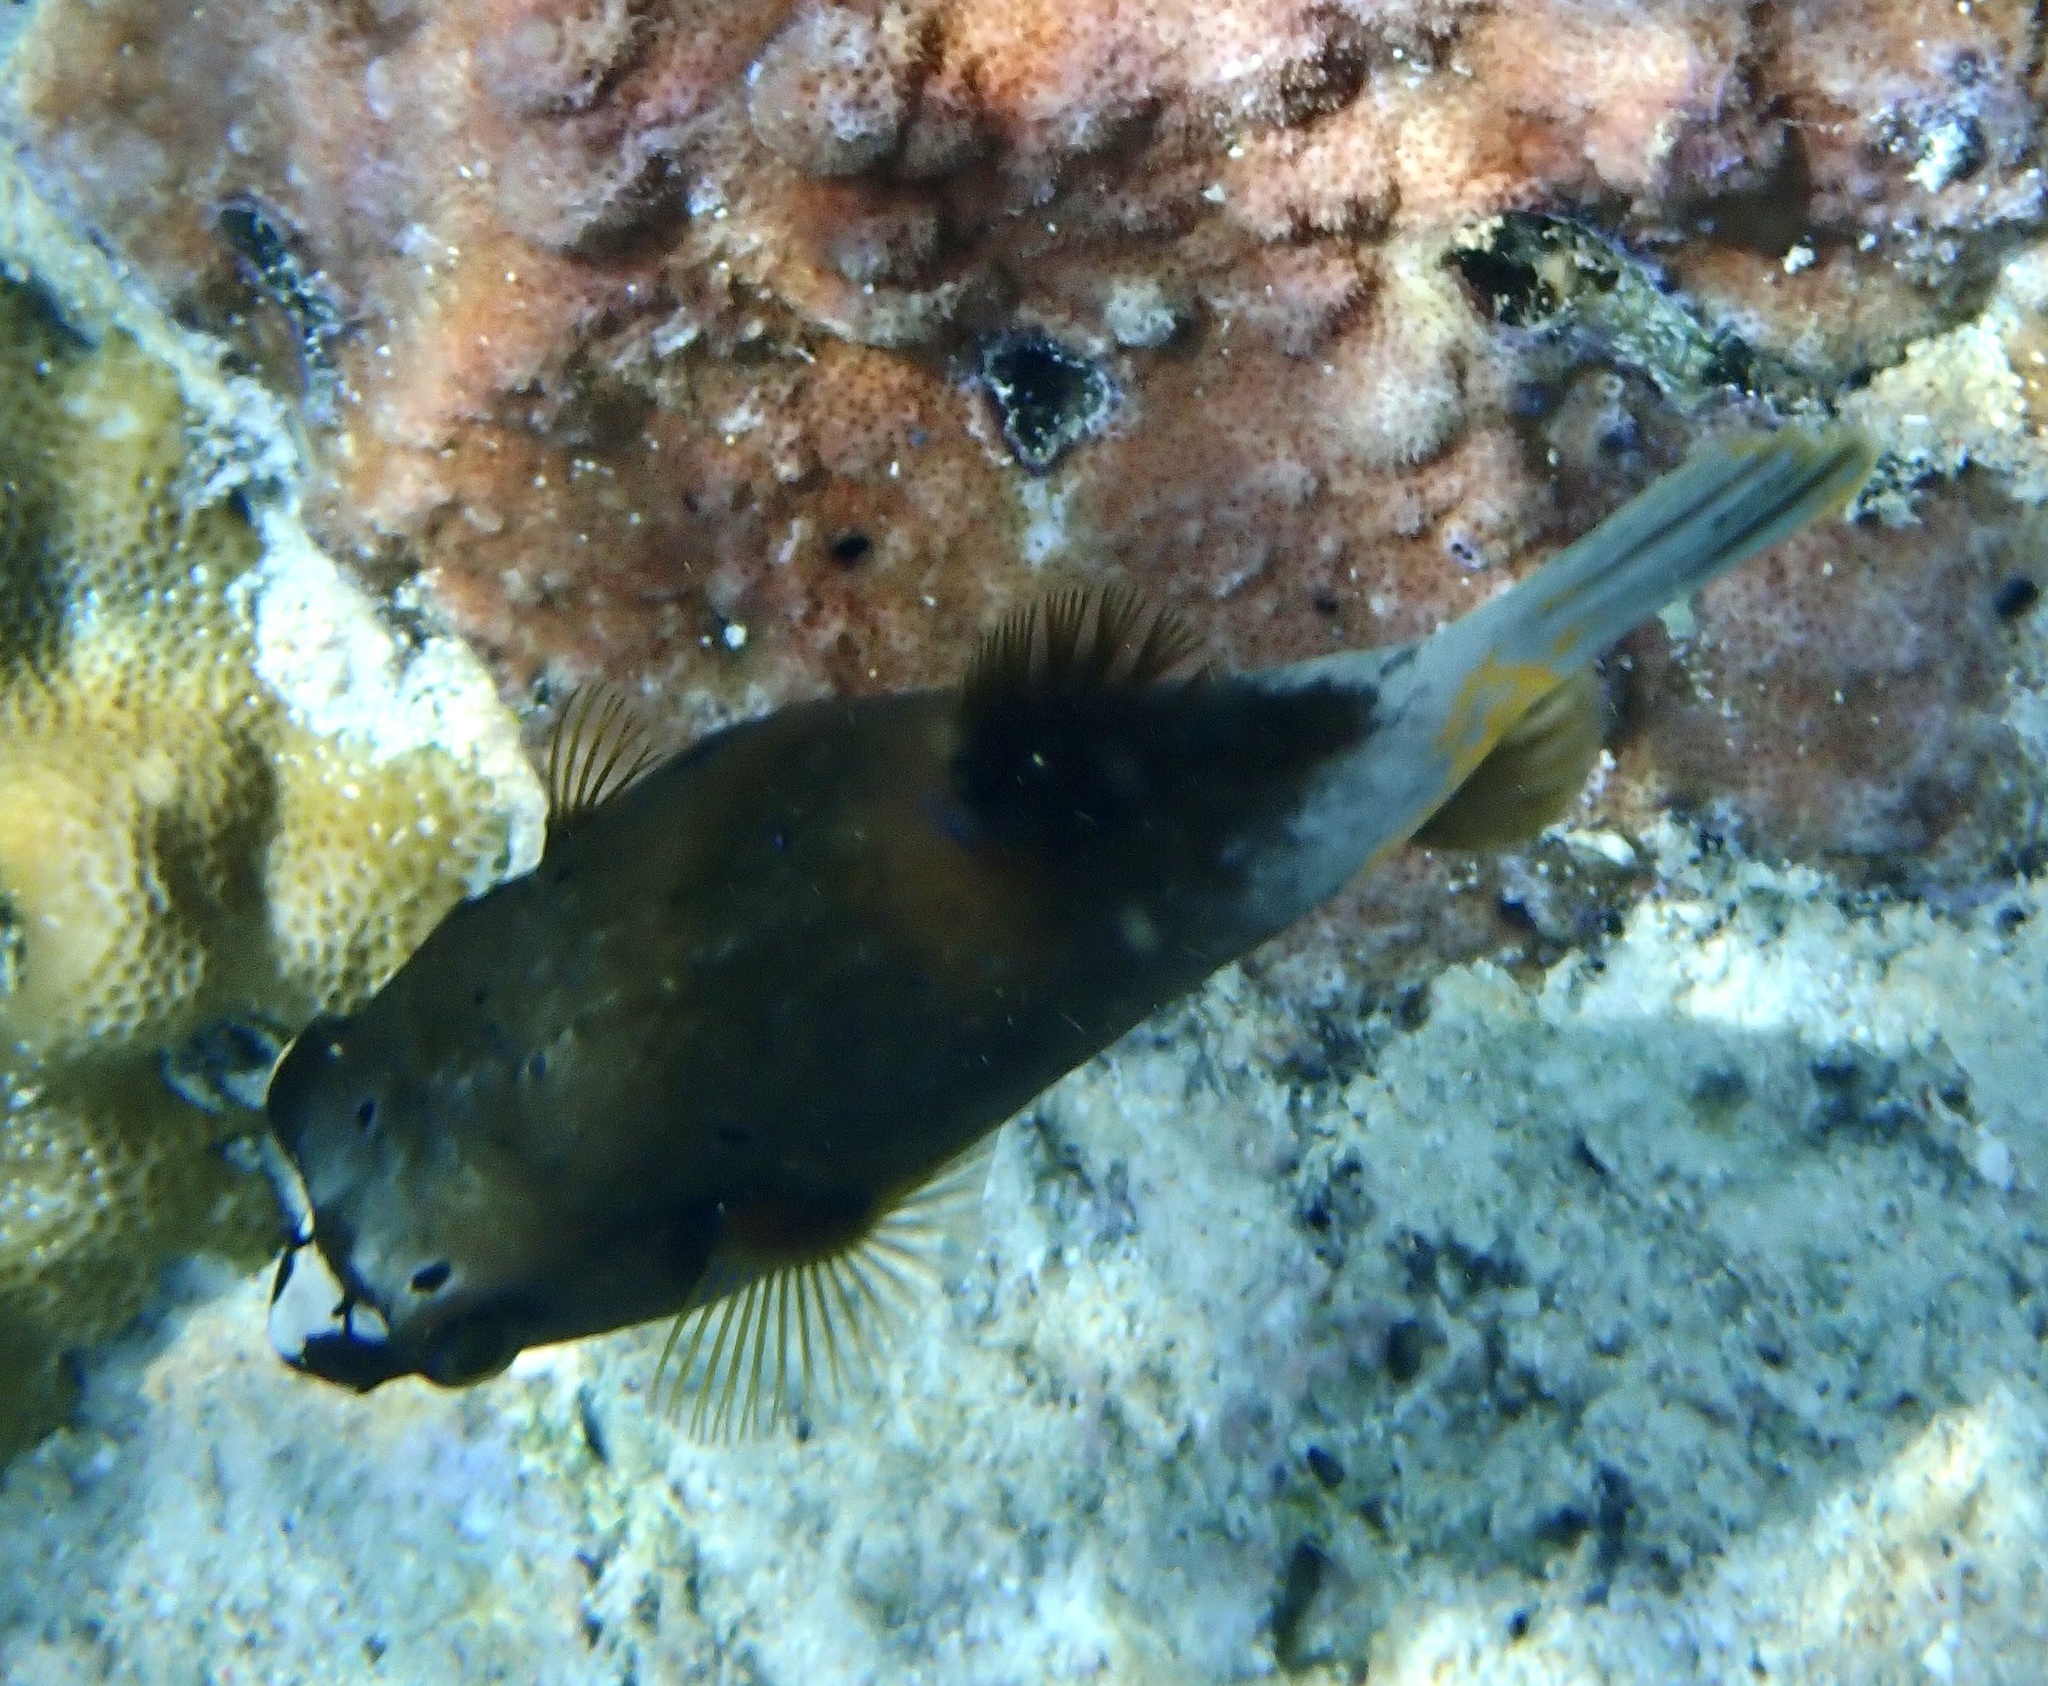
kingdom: Animalia
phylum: Chordata
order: Tetraodontiformes
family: Tetraodontidae
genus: Arothron
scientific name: Arothron nigropunctatus
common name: Black spotted blow fish
